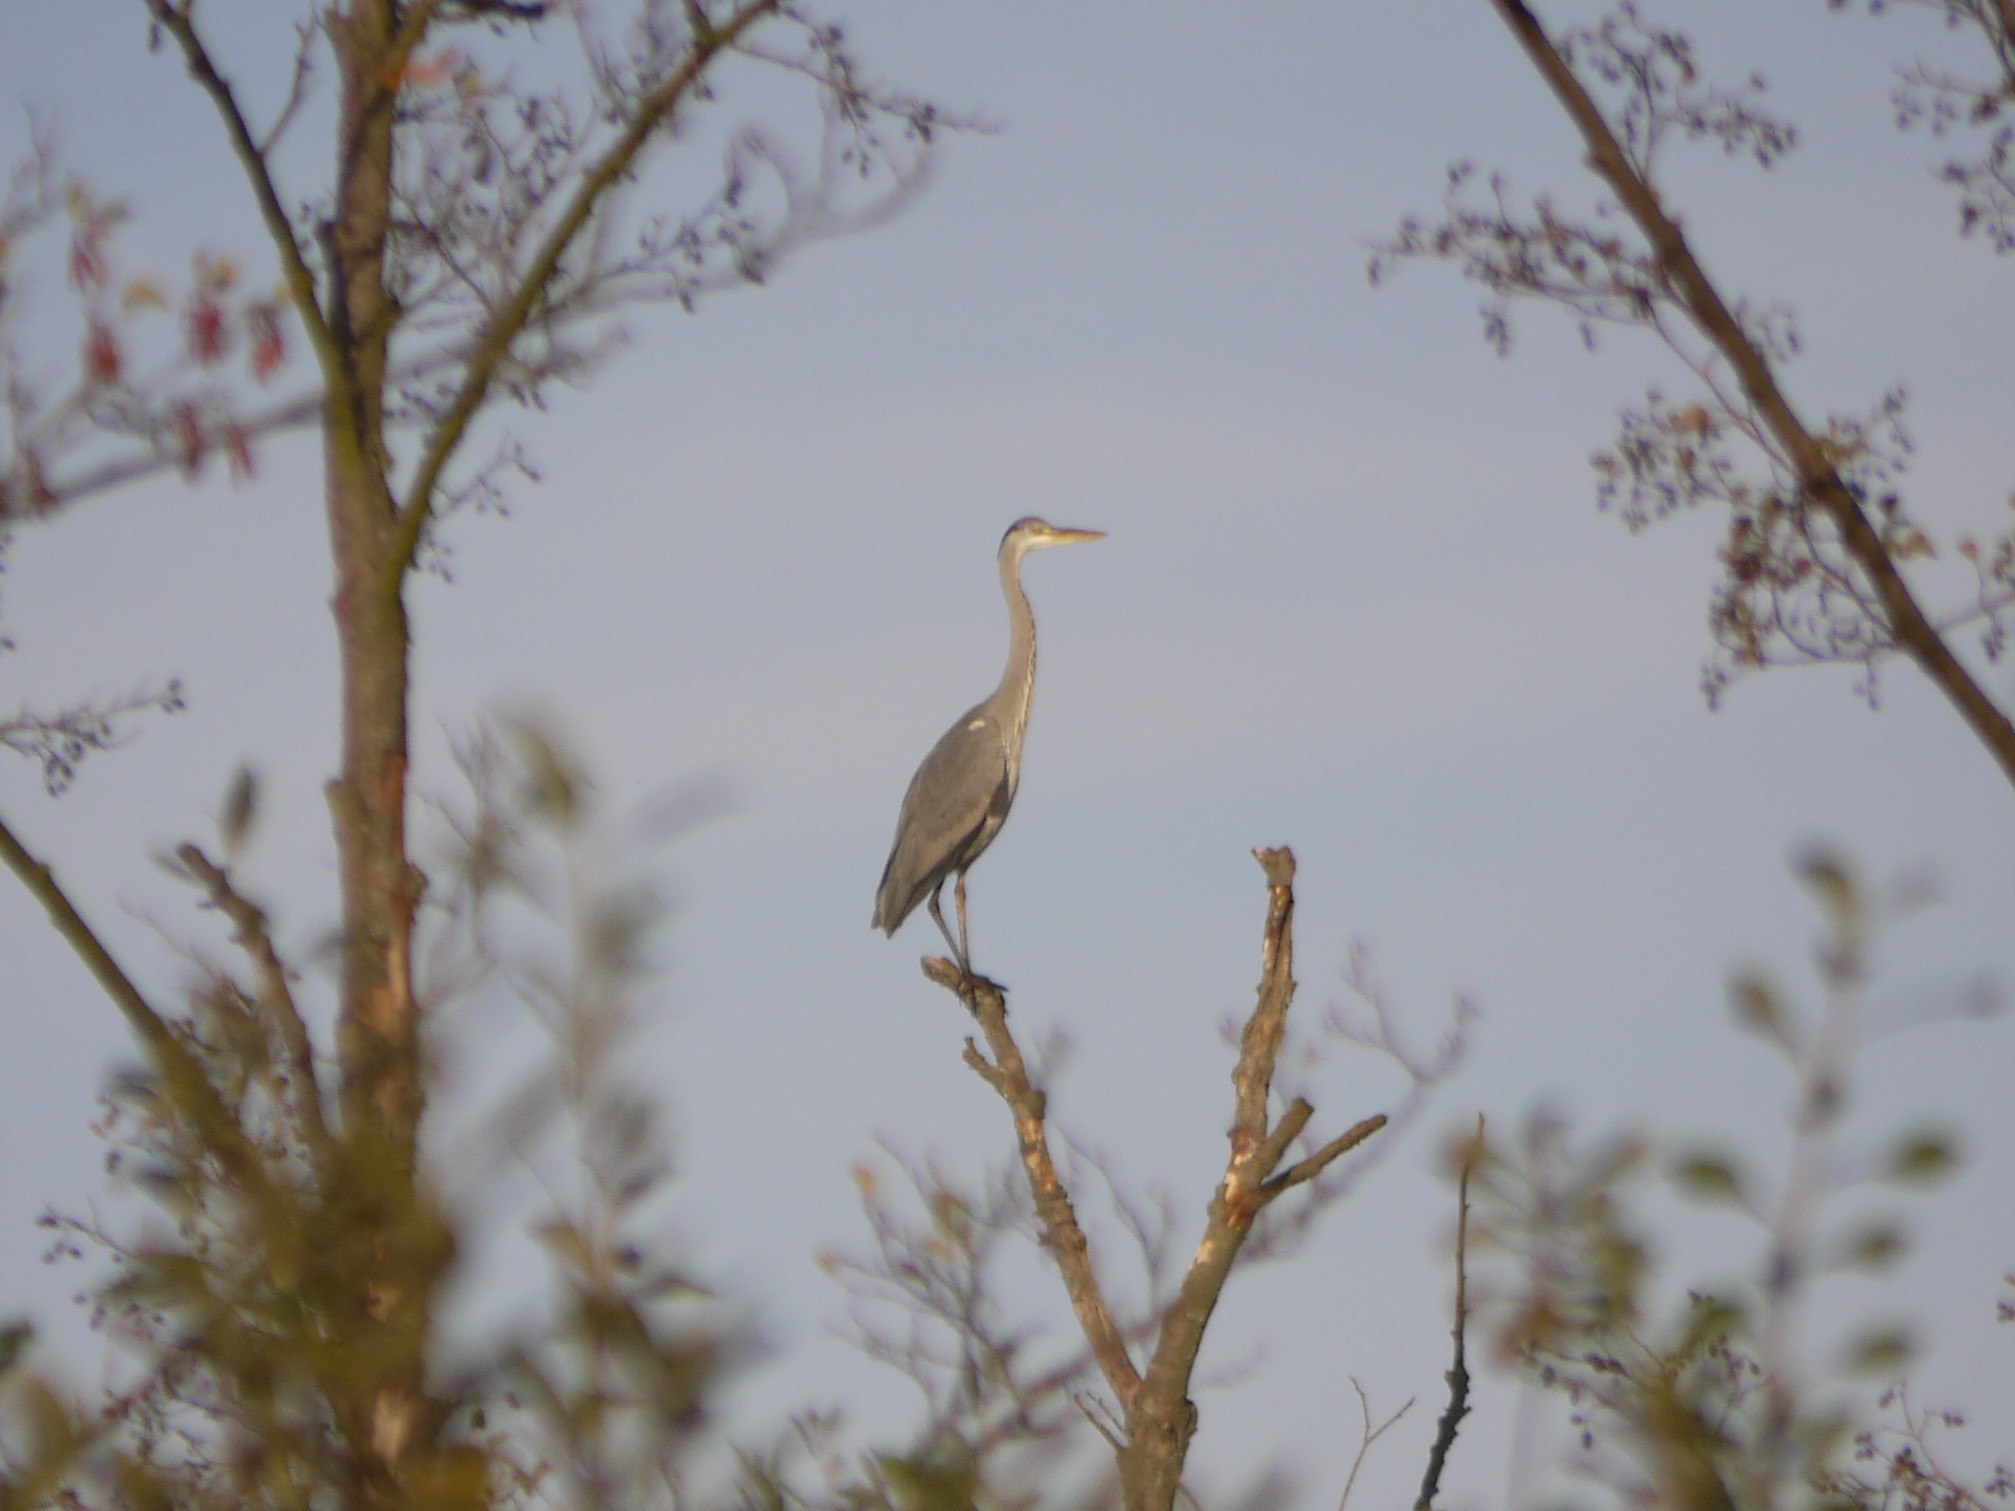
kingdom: Animalia
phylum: Chordata
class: Aves
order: Pelecaniformes
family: Ardeidae
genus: Ardea
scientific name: Ardea cinerea
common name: Grey heron
